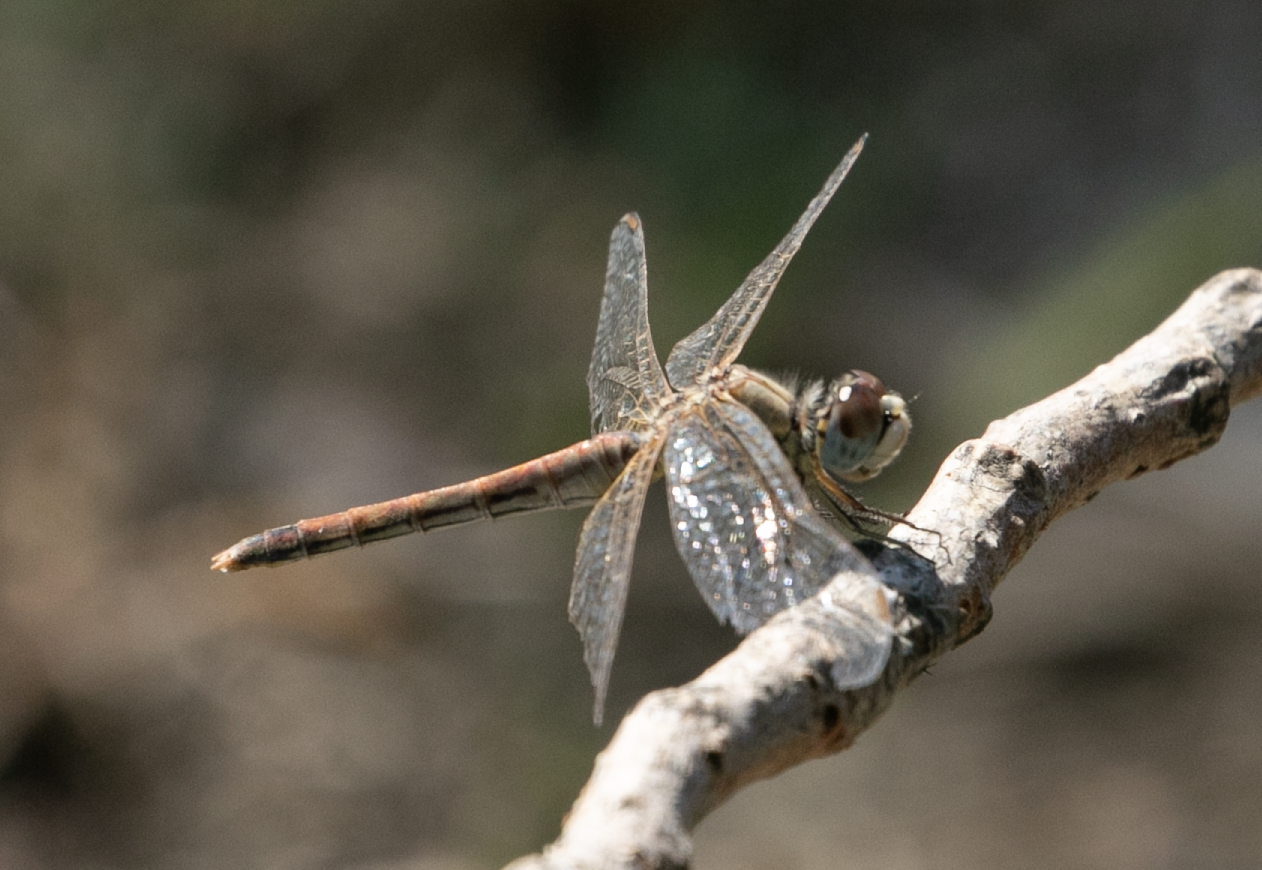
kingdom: Animalia
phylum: Arthropoda
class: Insecta
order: Odonata
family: Libellulidae
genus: Sympetrum
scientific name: Sympetrum fonscolombii
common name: Red-veined darter
